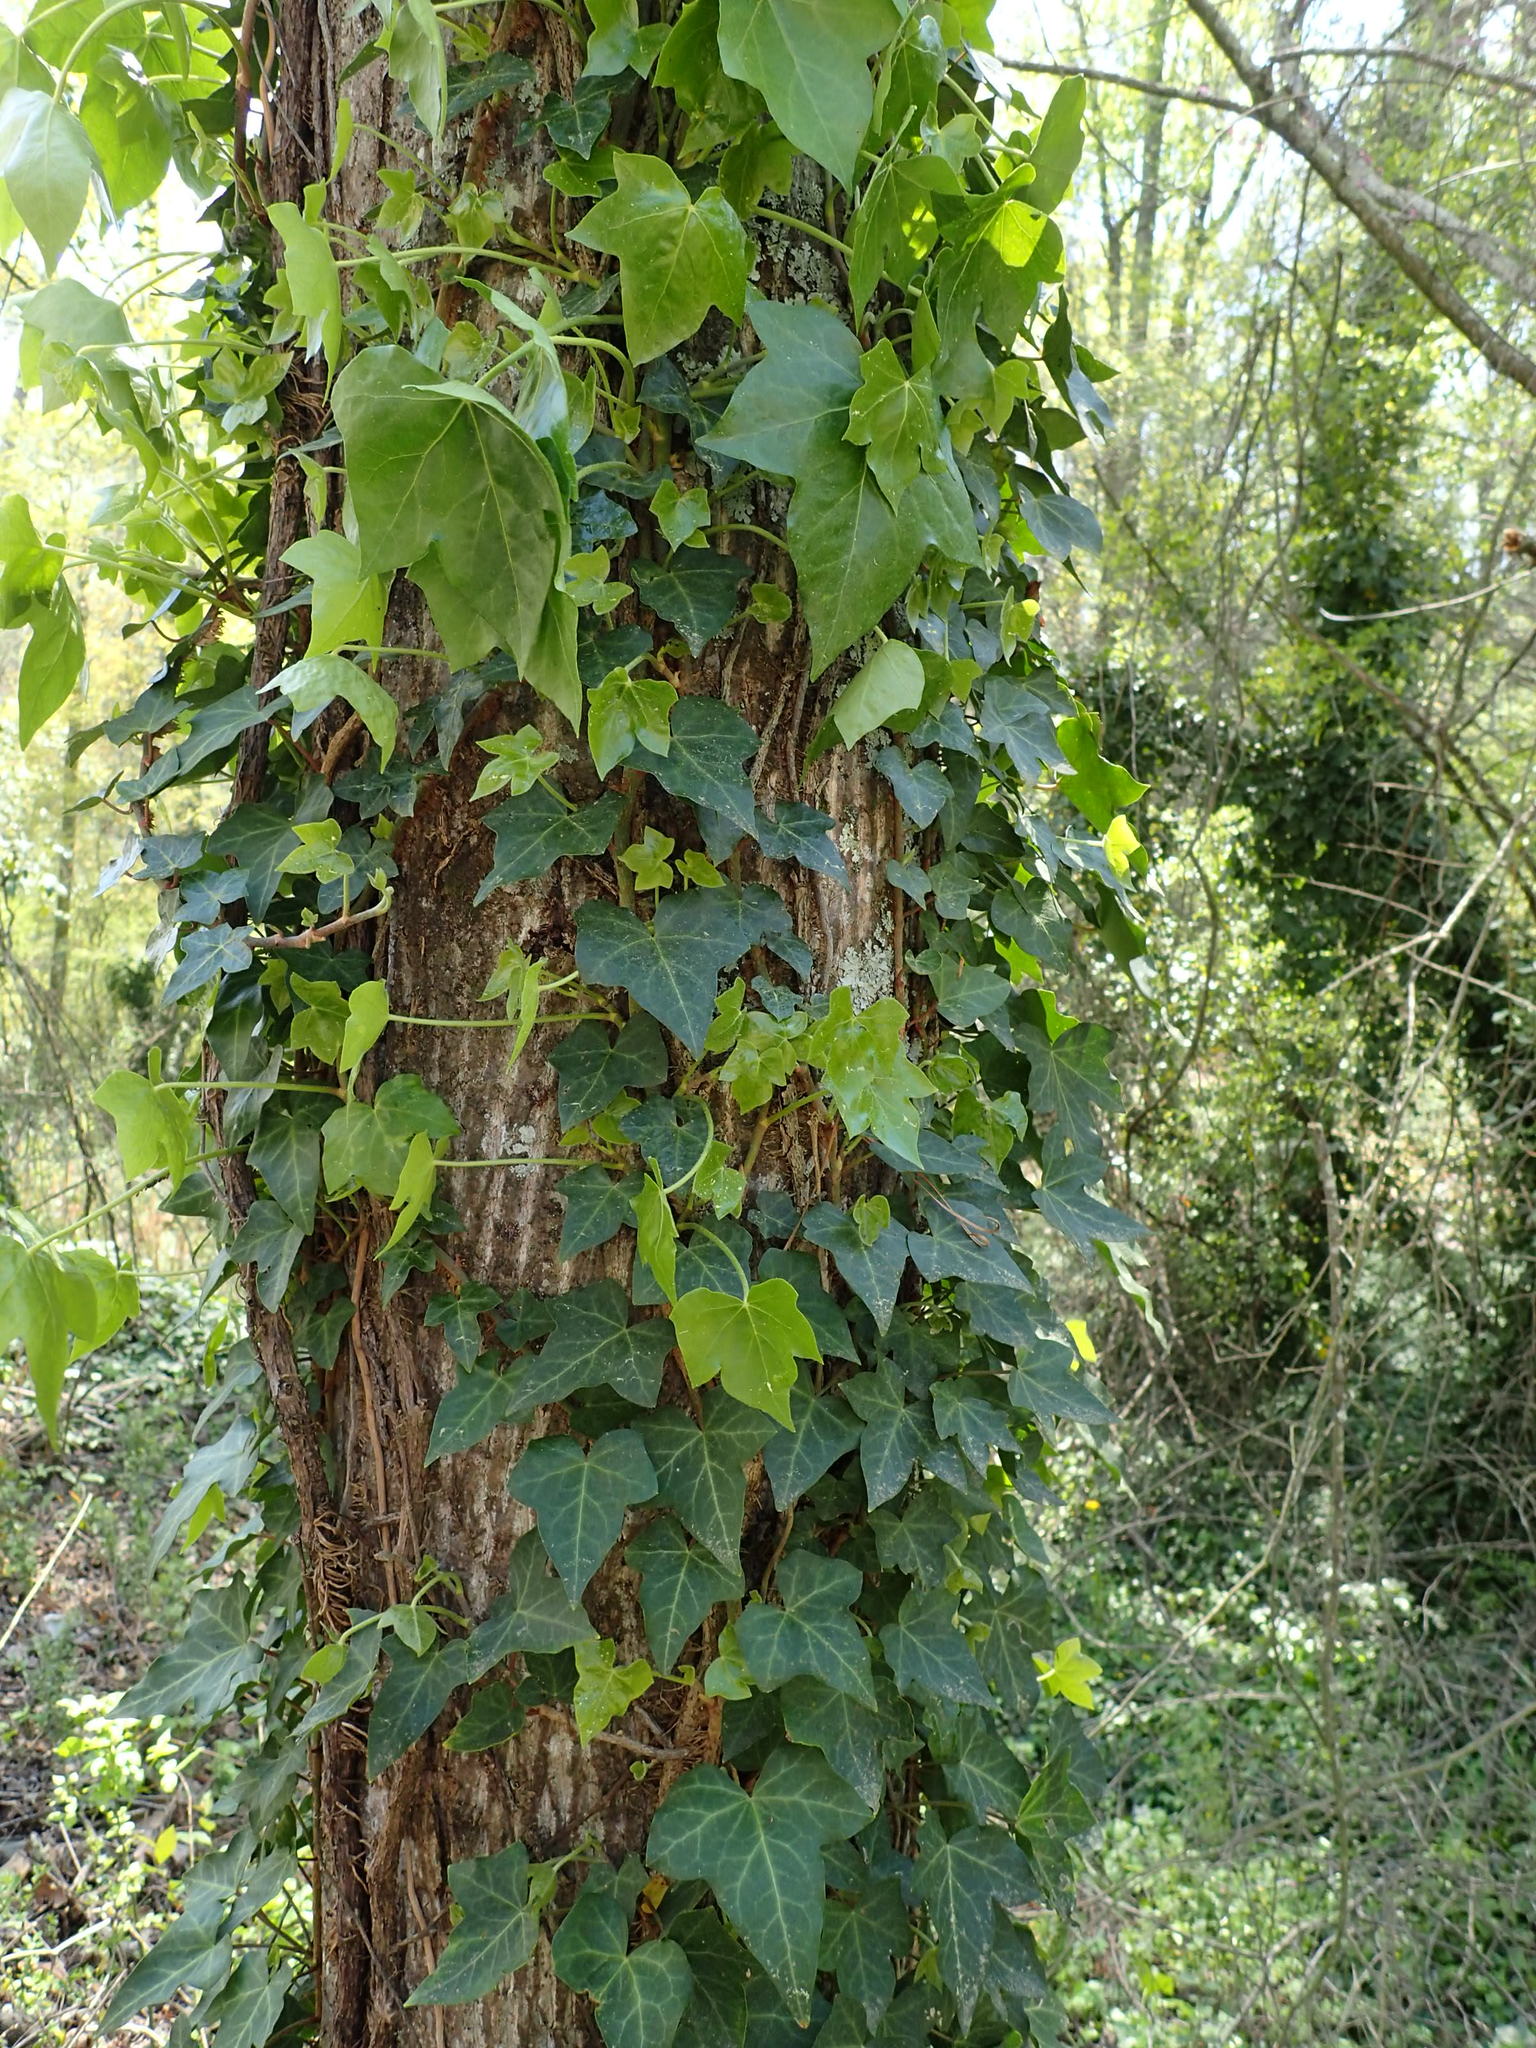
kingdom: Plantae
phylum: Tracheophyta
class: Magnoliopsida
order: Apiales
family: Araliaceae
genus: Hedera
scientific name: Hedera helix
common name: Ivy
